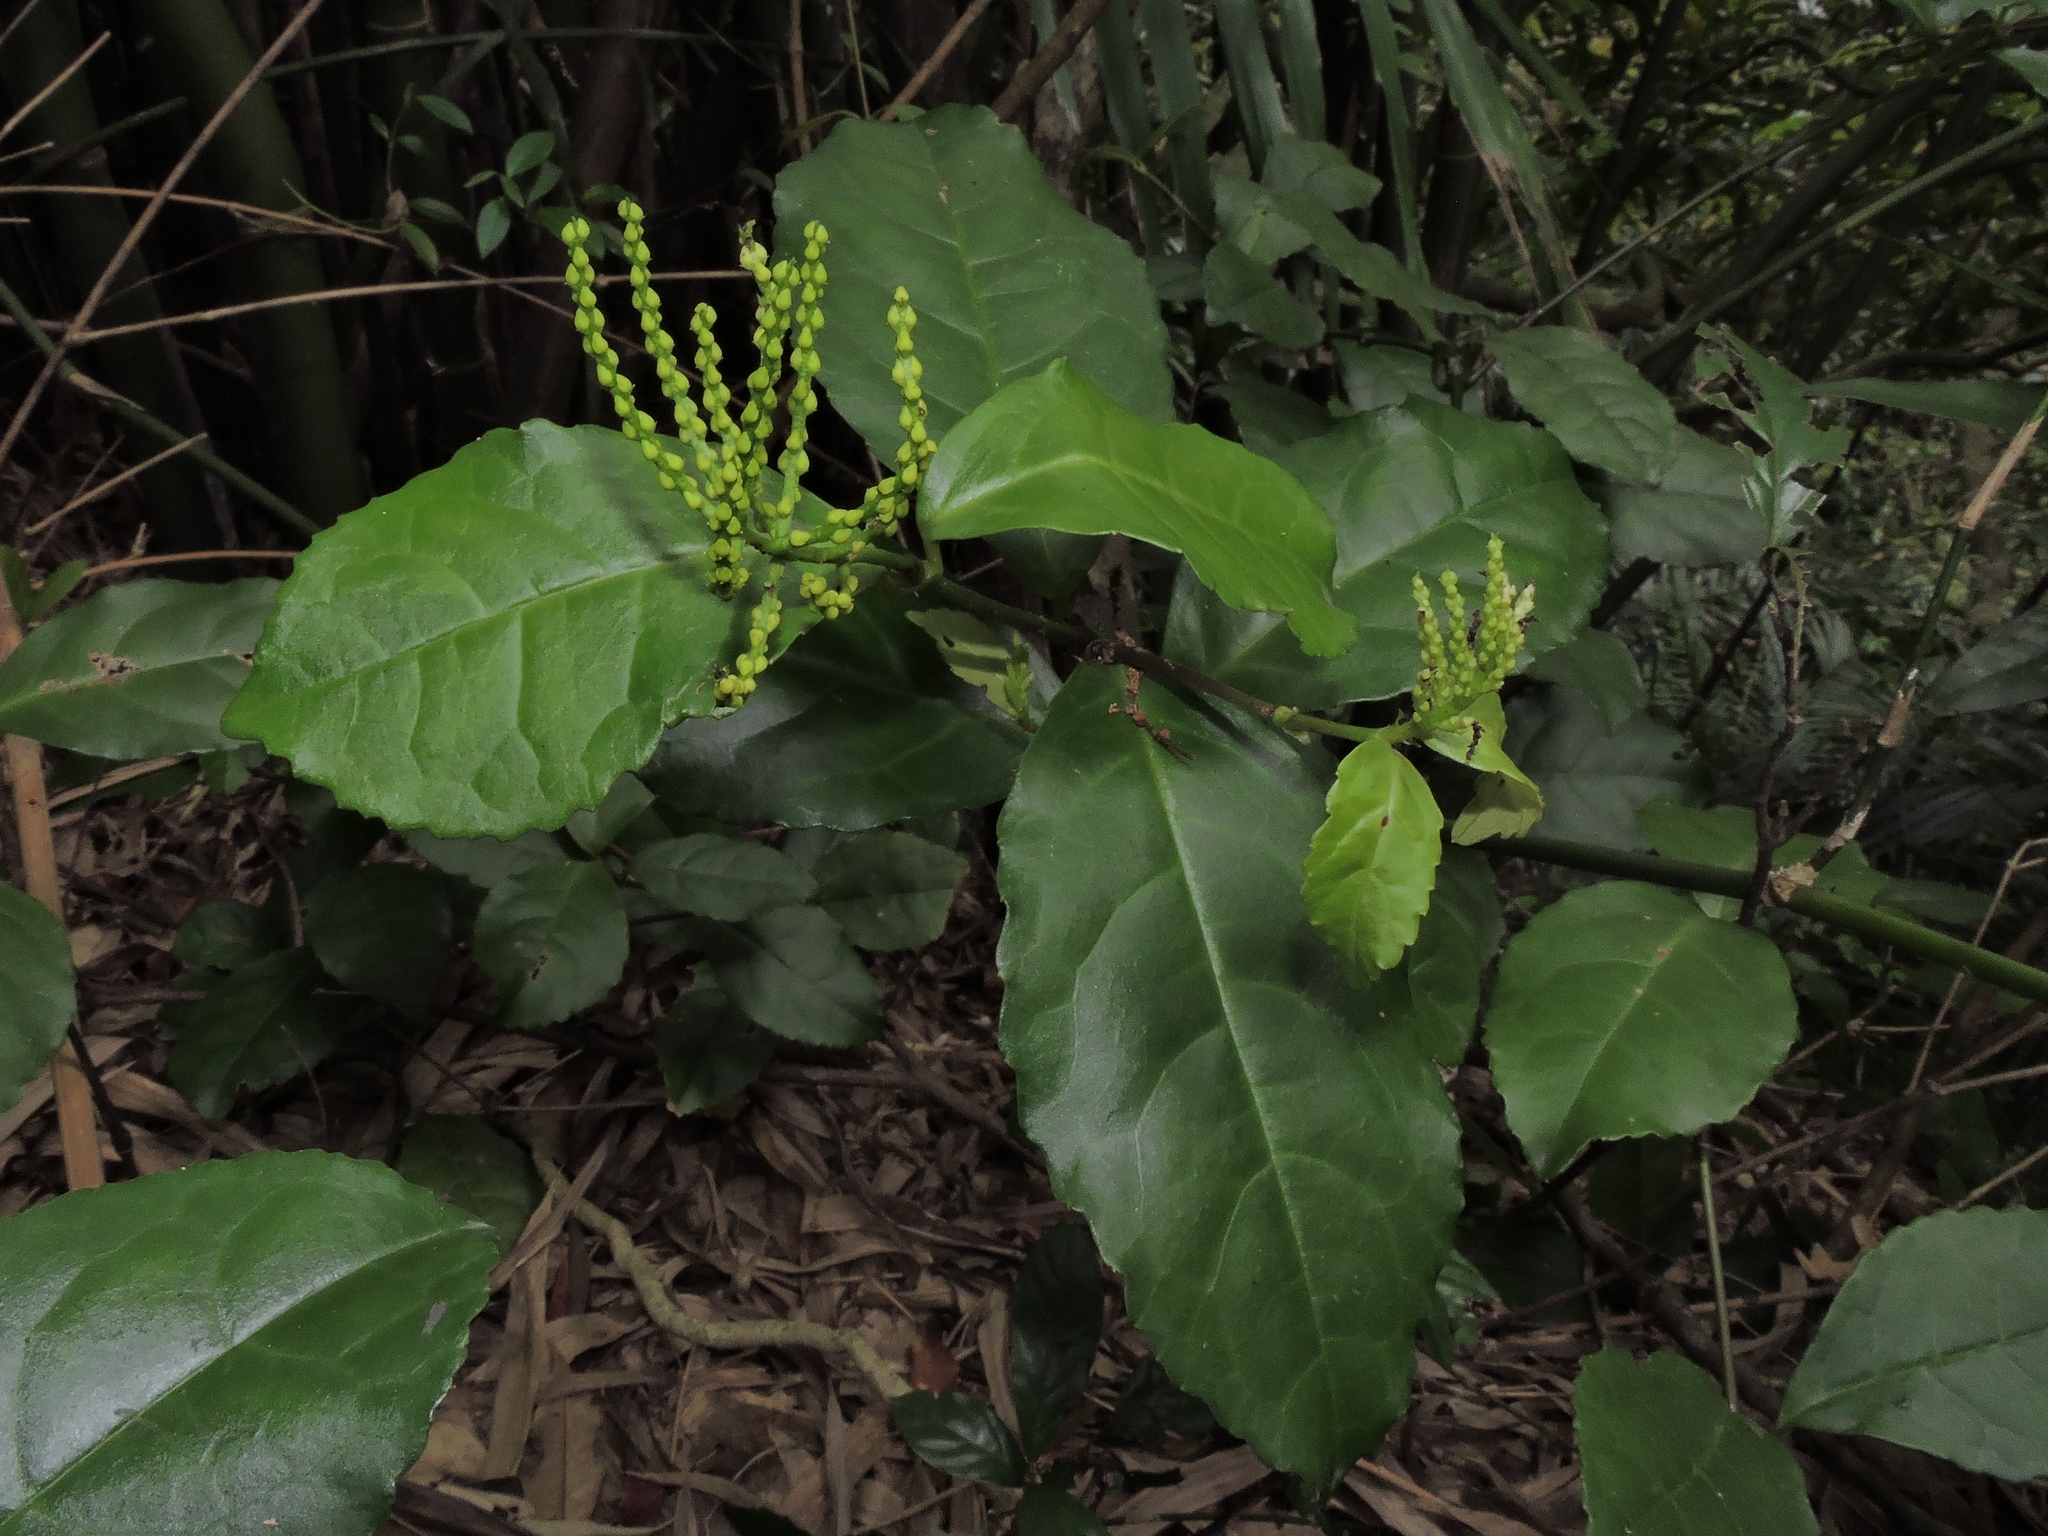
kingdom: Plantae
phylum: Tracheophyta
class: Magnoliopsida
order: Chloranthales
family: Chloranthaceae
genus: Chloranthus
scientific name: Chloranthus spicatus
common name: Chulantree
